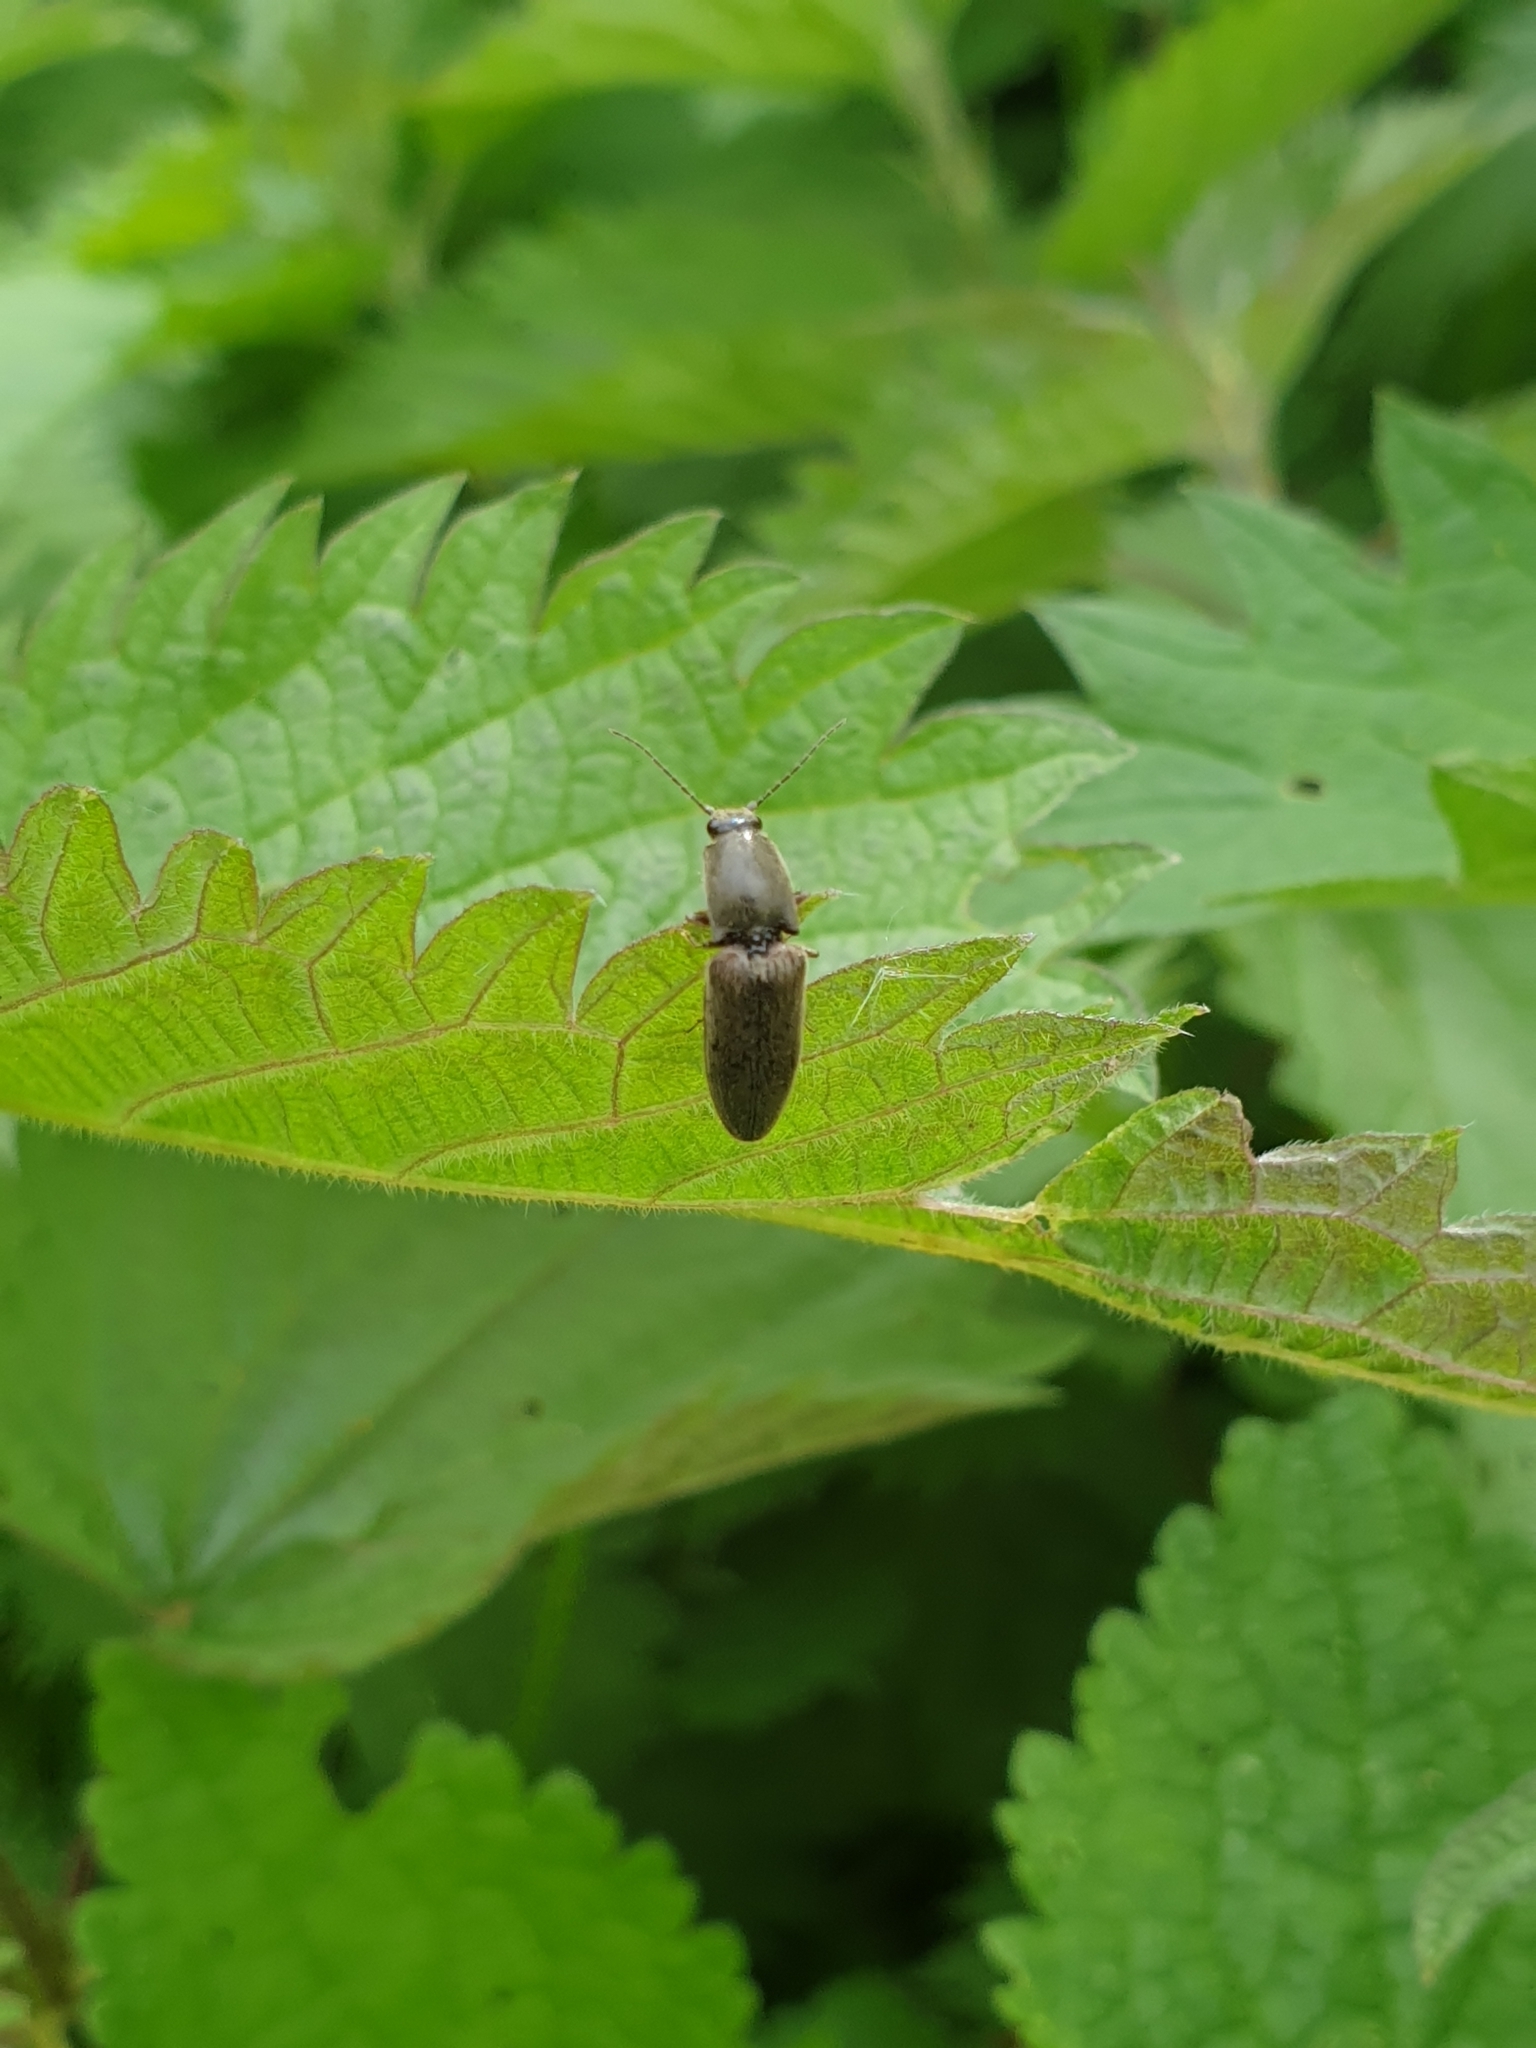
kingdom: Animalia
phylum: Arthropoda
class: Insecta
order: Coleoptera
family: Elateridae
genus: Athous
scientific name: Athous haemorrhoidalis
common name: Red-brown click beetle
